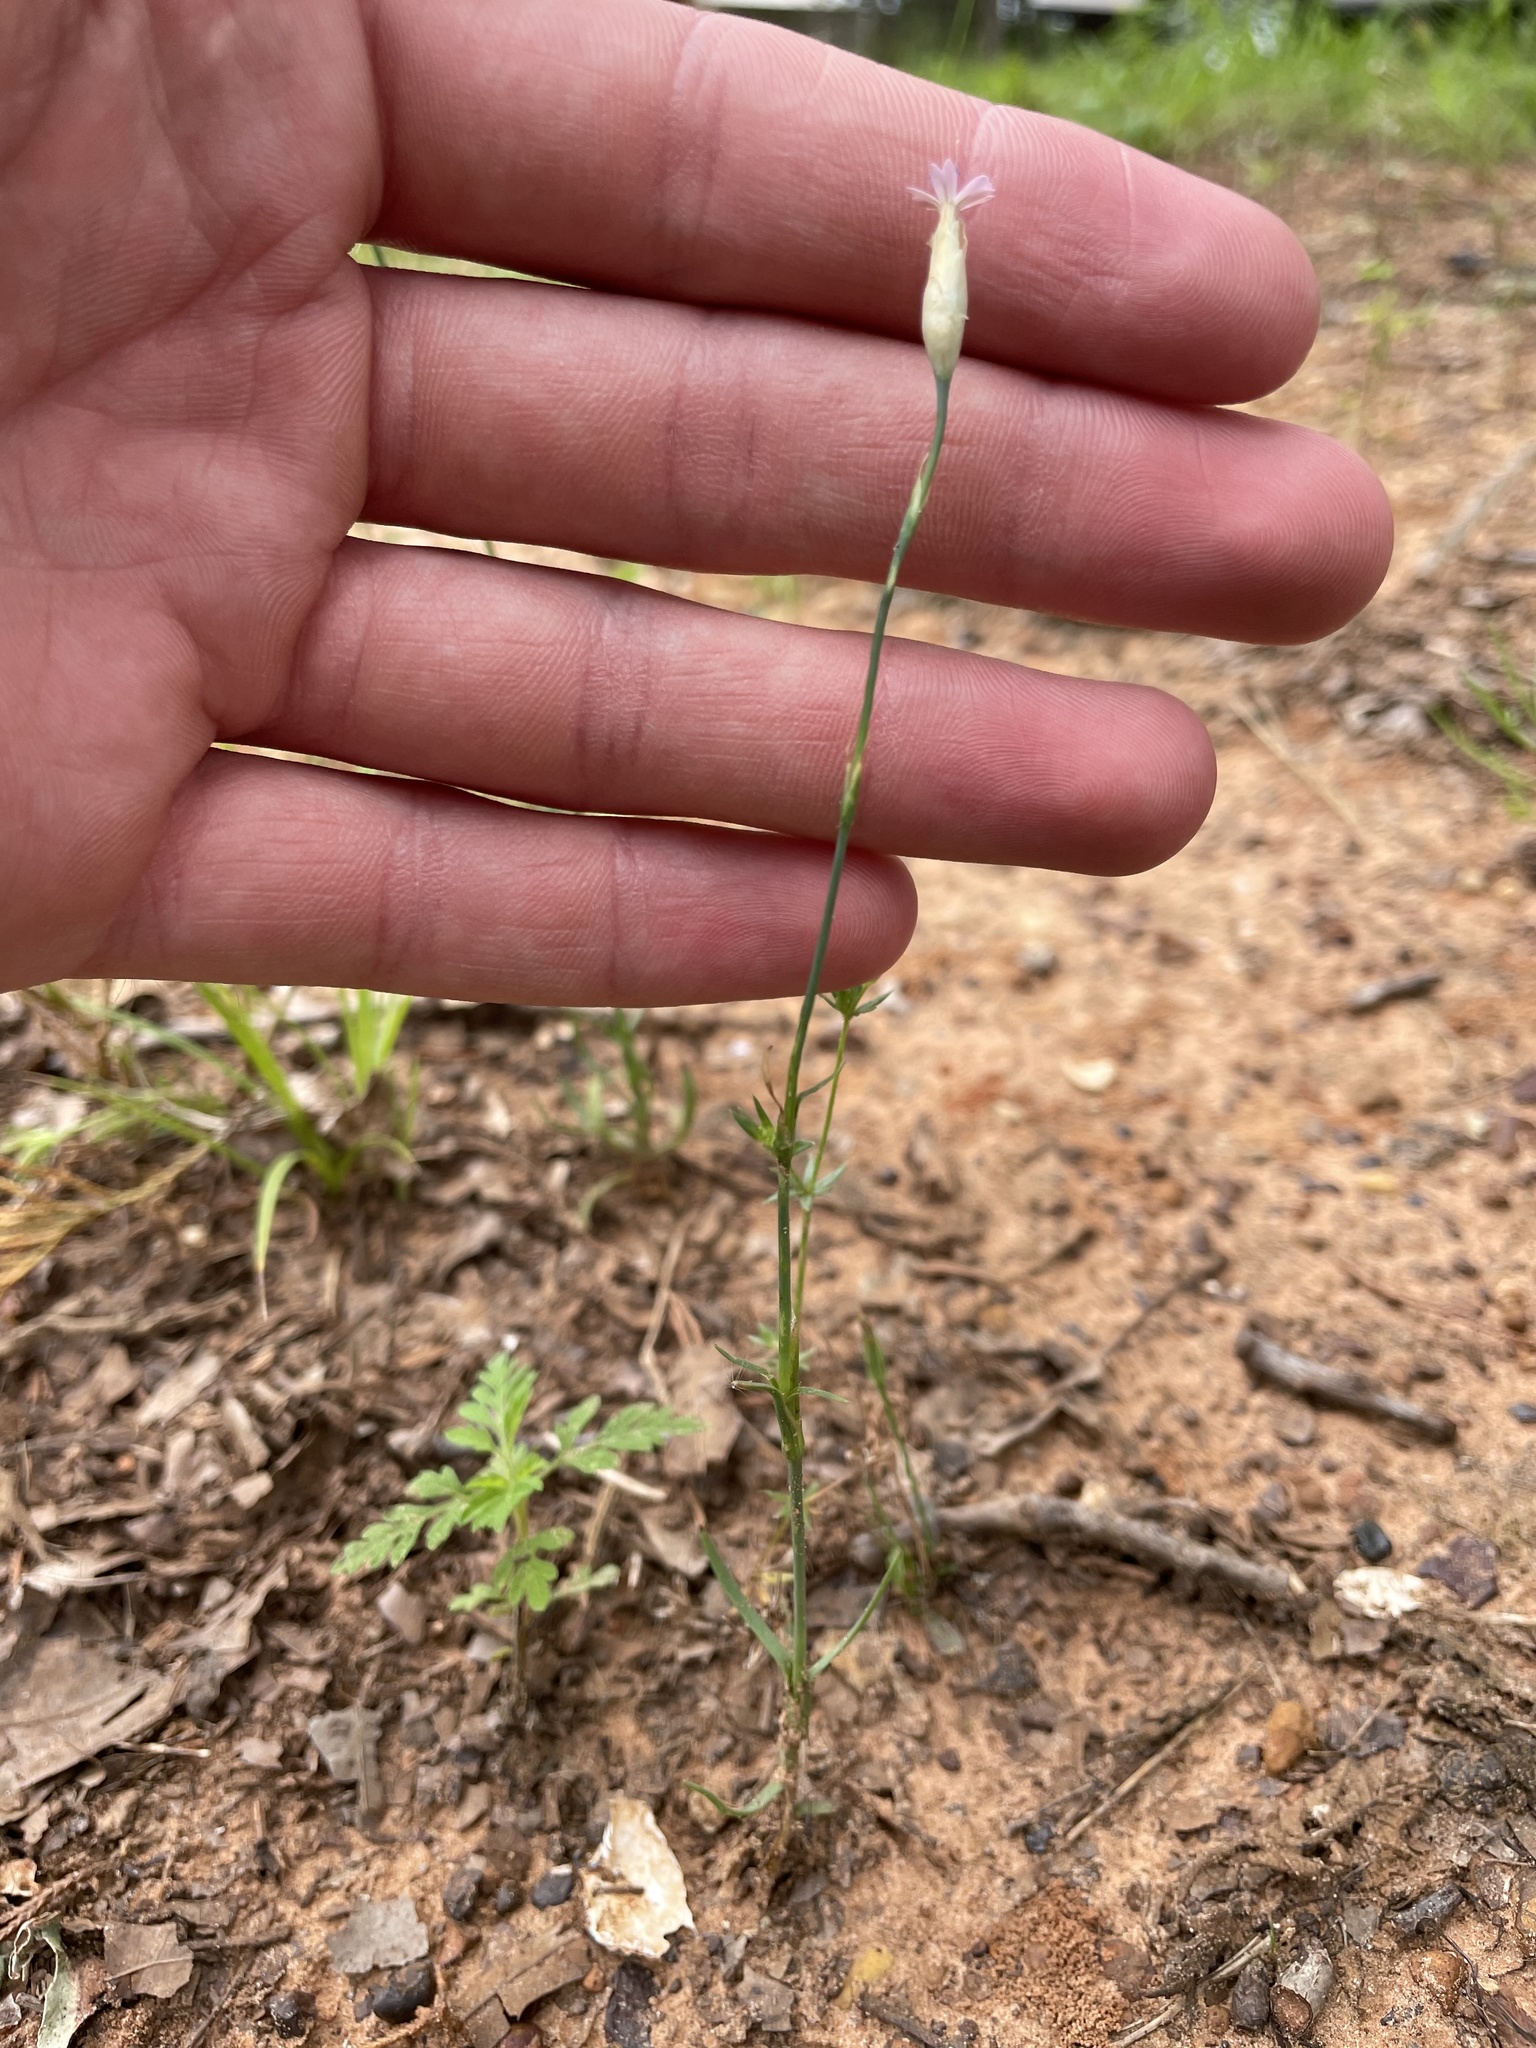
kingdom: Plantae
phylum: Tracheophyta
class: Magnoliopsida
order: Caryophyllales
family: Caryophyllaceae
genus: Petrorhagia
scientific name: Petrorhagia dubia
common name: Hairypink
